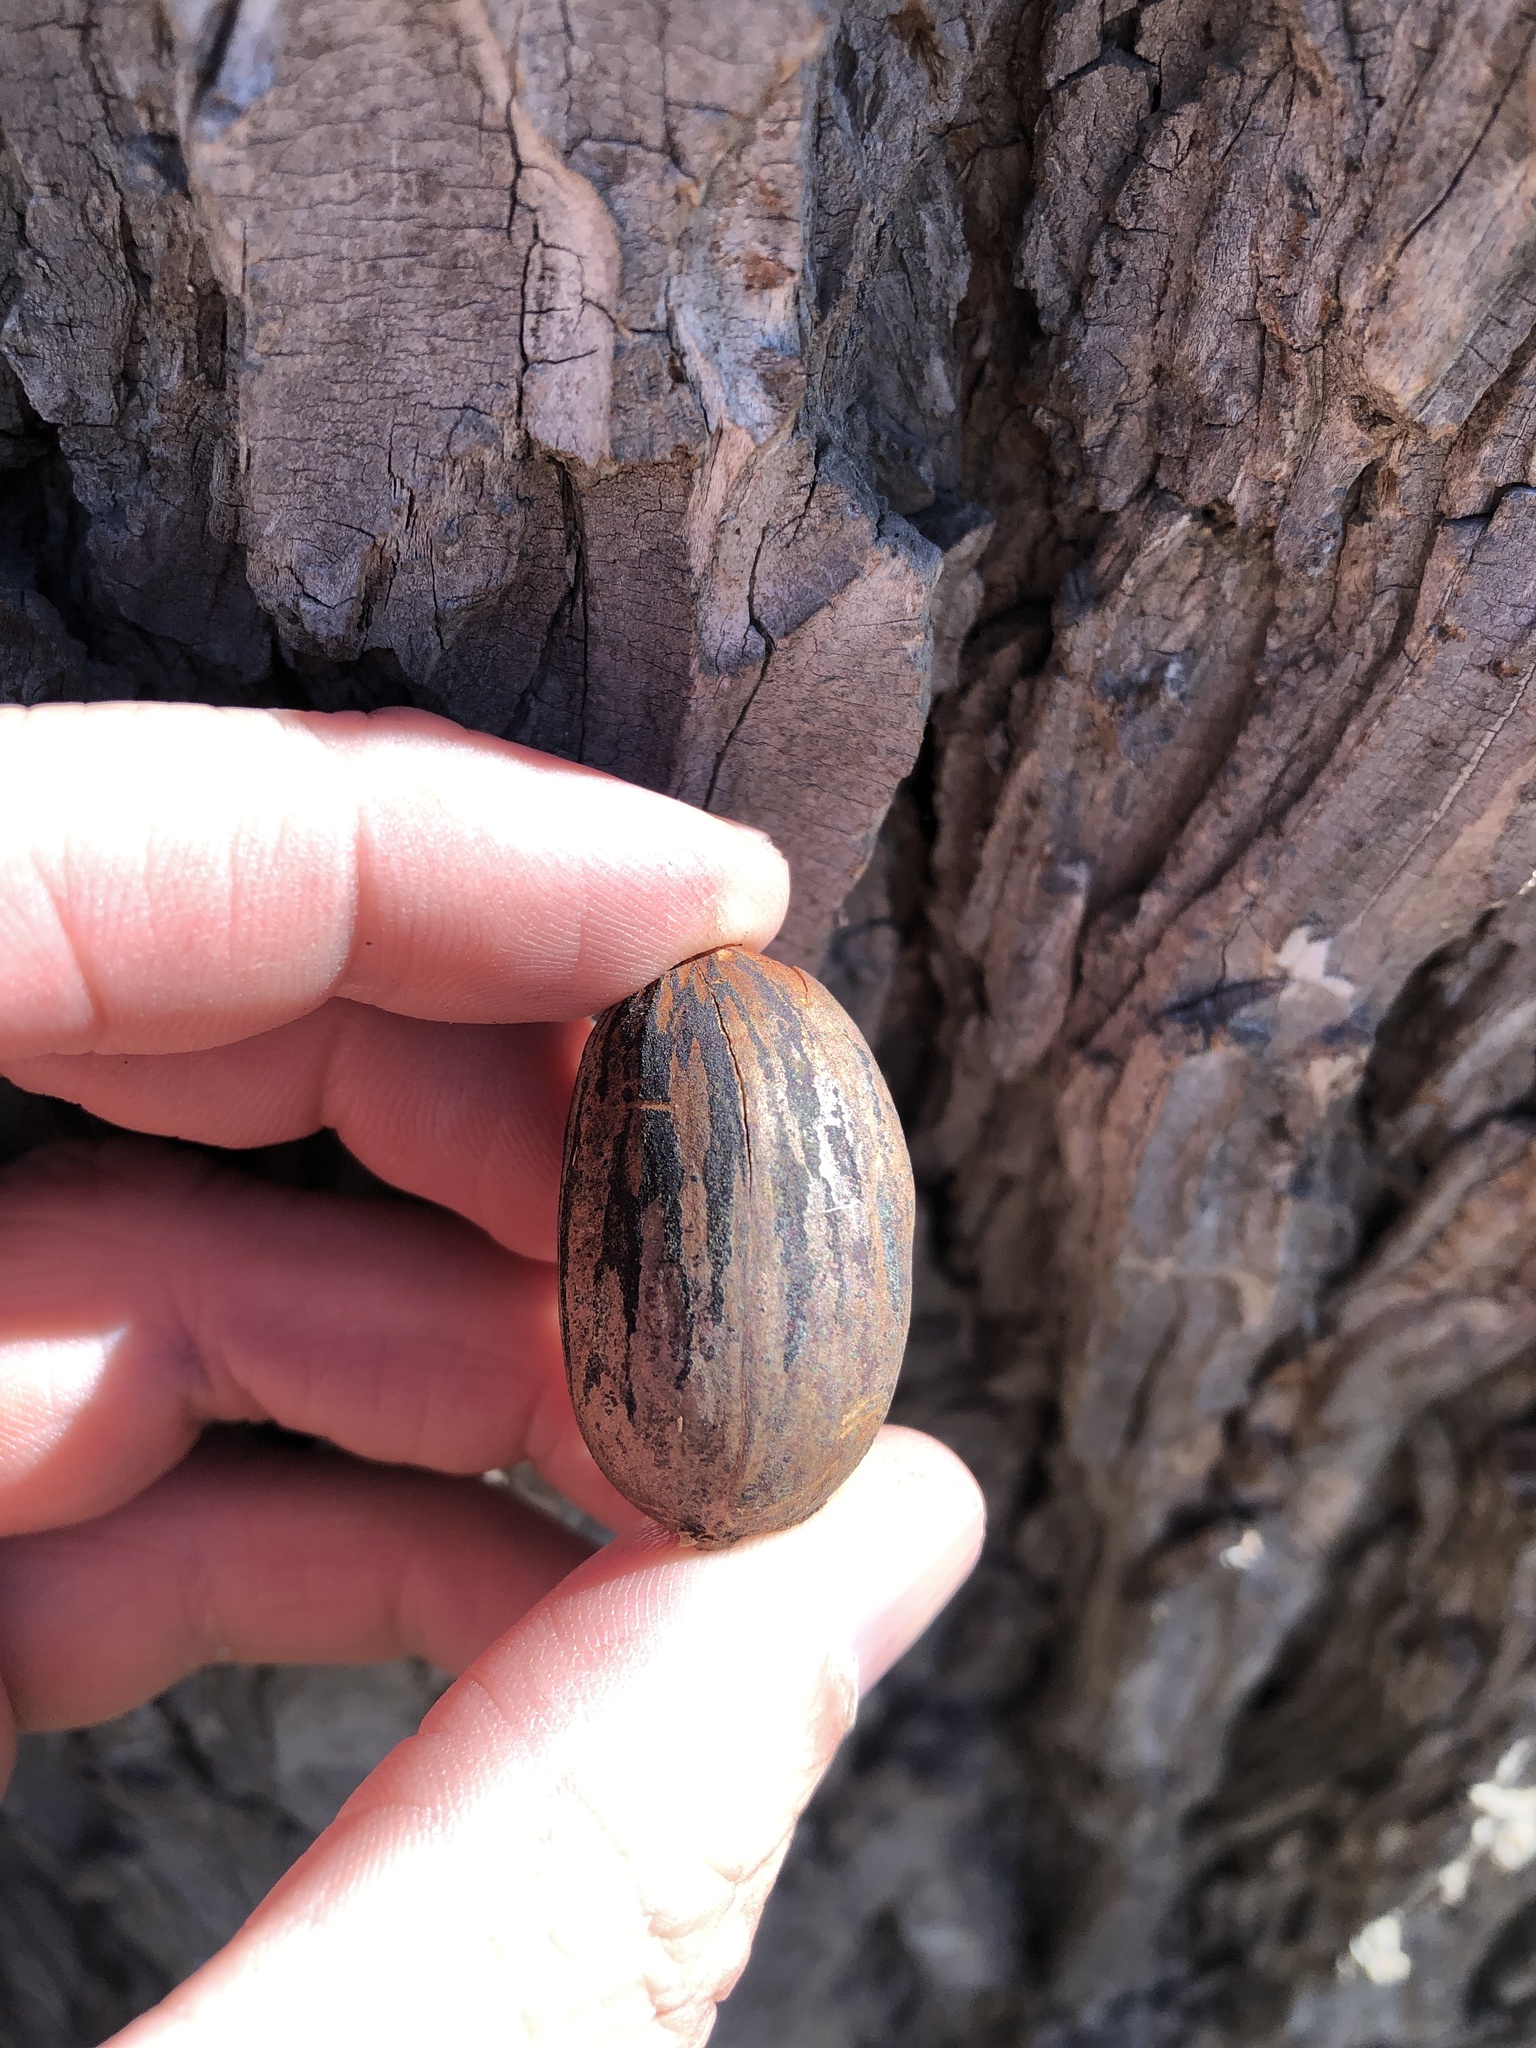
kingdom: Plantae
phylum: Tracheophyta
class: Magnoliopsida
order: Fagales
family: Juglandaceae
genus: Carya
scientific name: Carya illinoinensis
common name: Pecan
